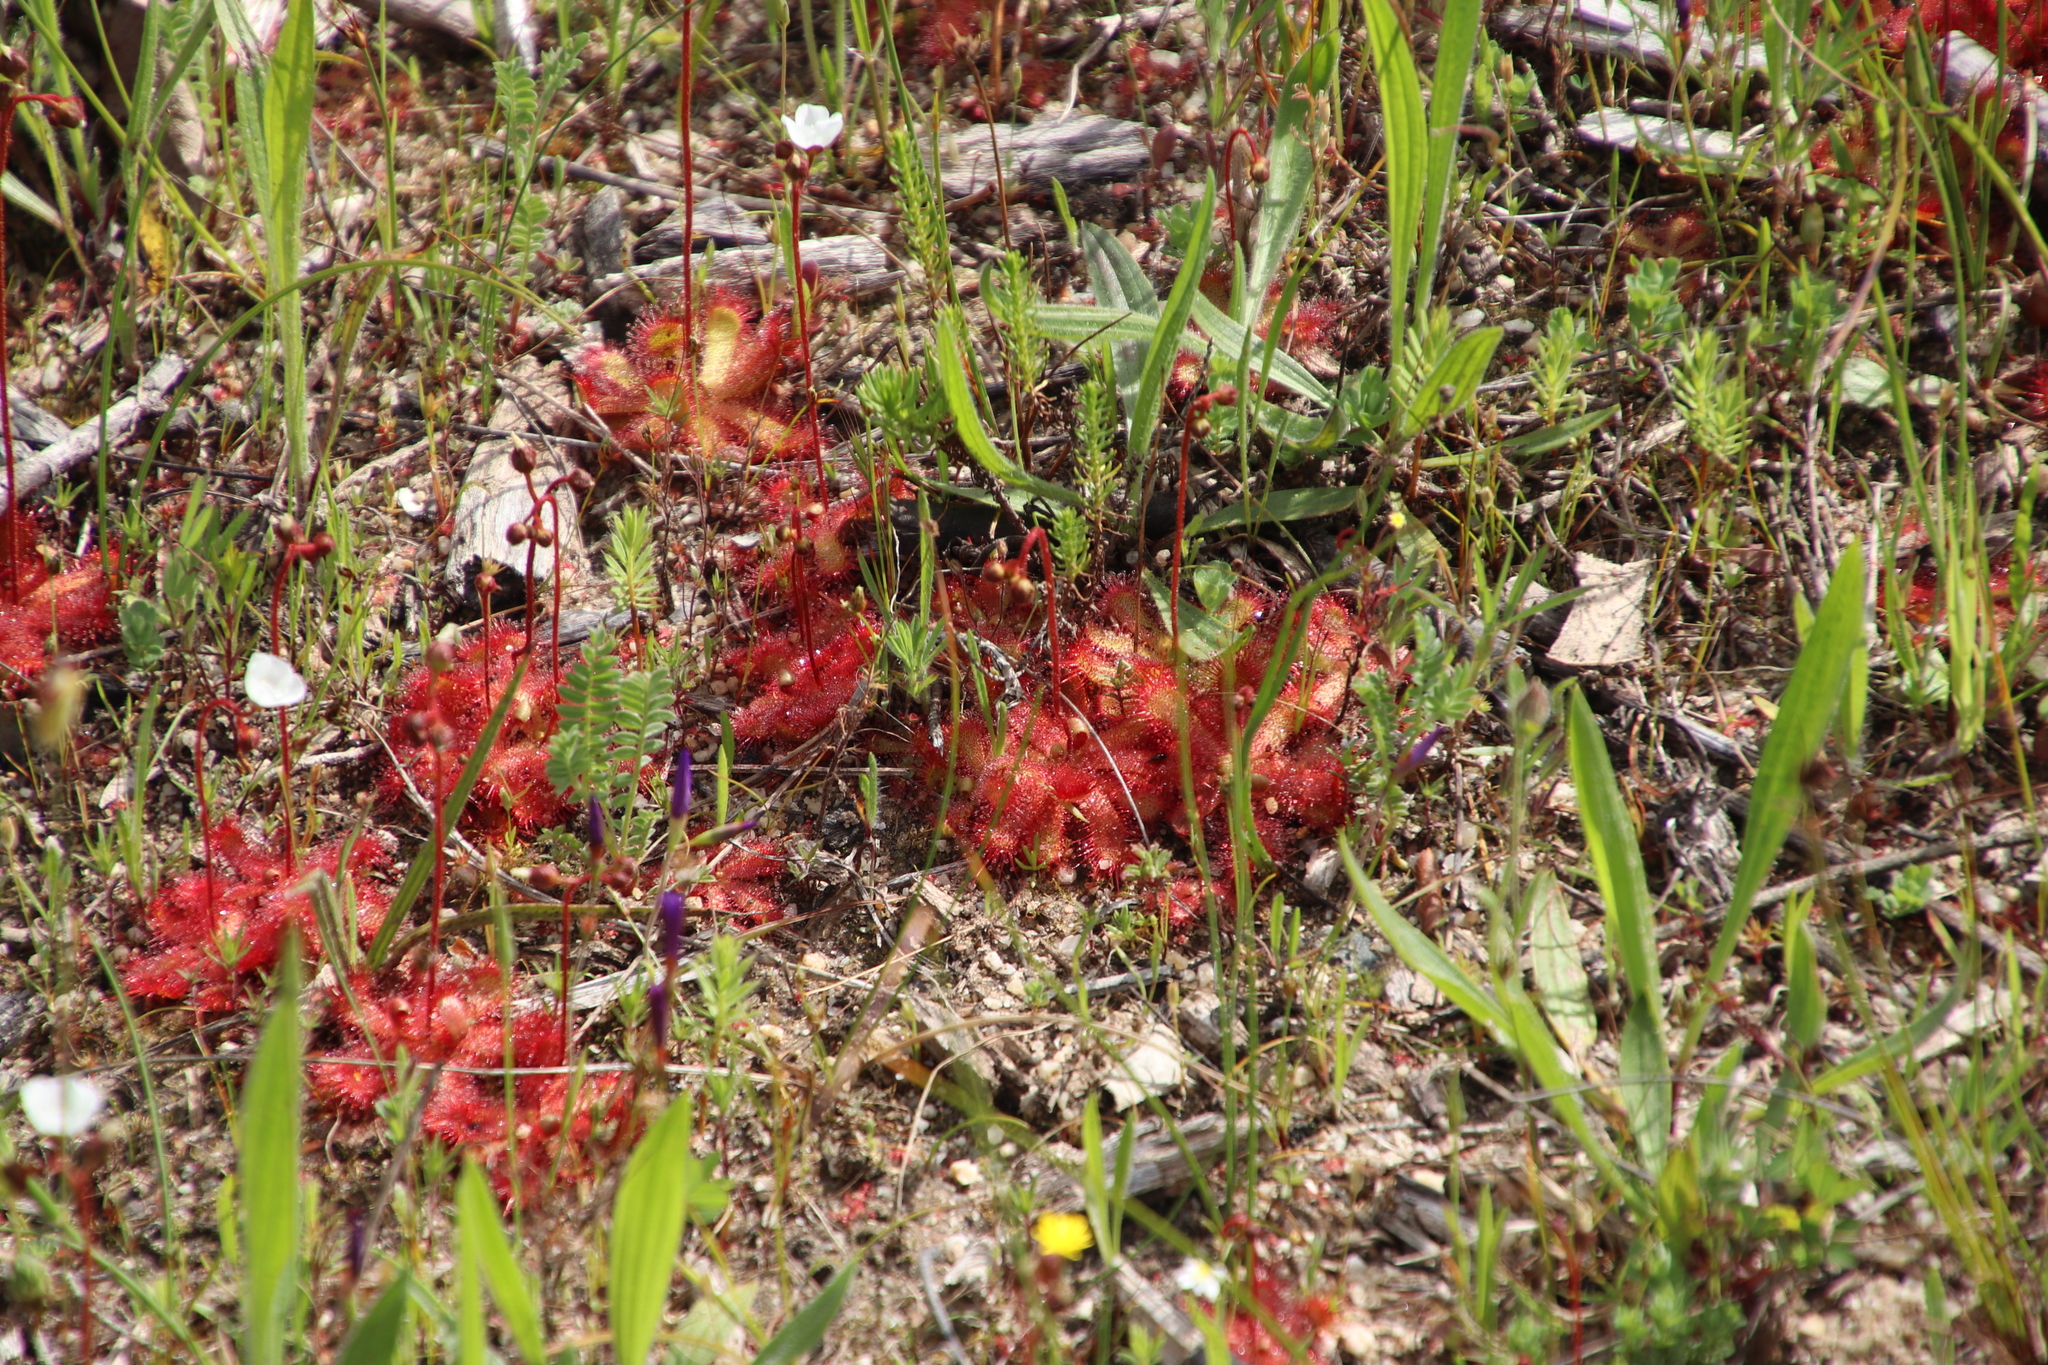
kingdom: Plantae
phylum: Tracheophyta
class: Magnoliopsida
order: Caryophyllales
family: Droseraceae
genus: Drosera
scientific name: Drosera trinervia
